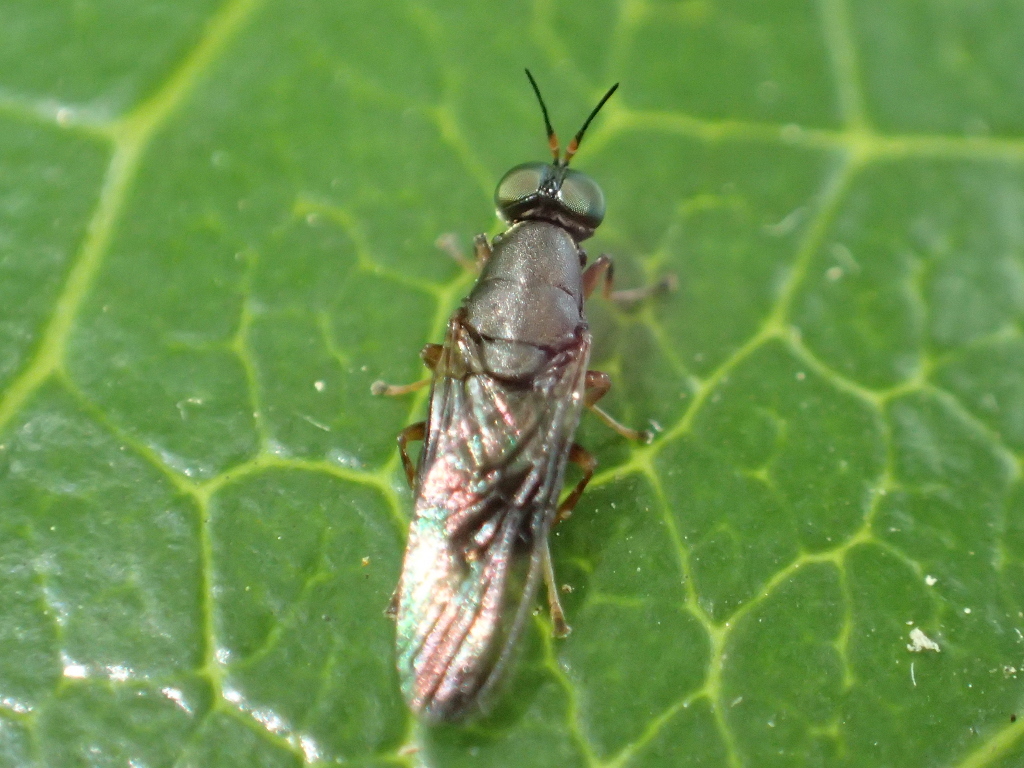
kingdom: Animalia
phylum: Arthropoda
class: Insecta
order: Diptera
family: Stratiomyidae
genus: Dysbiota
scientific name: Dysbiota peregrina
